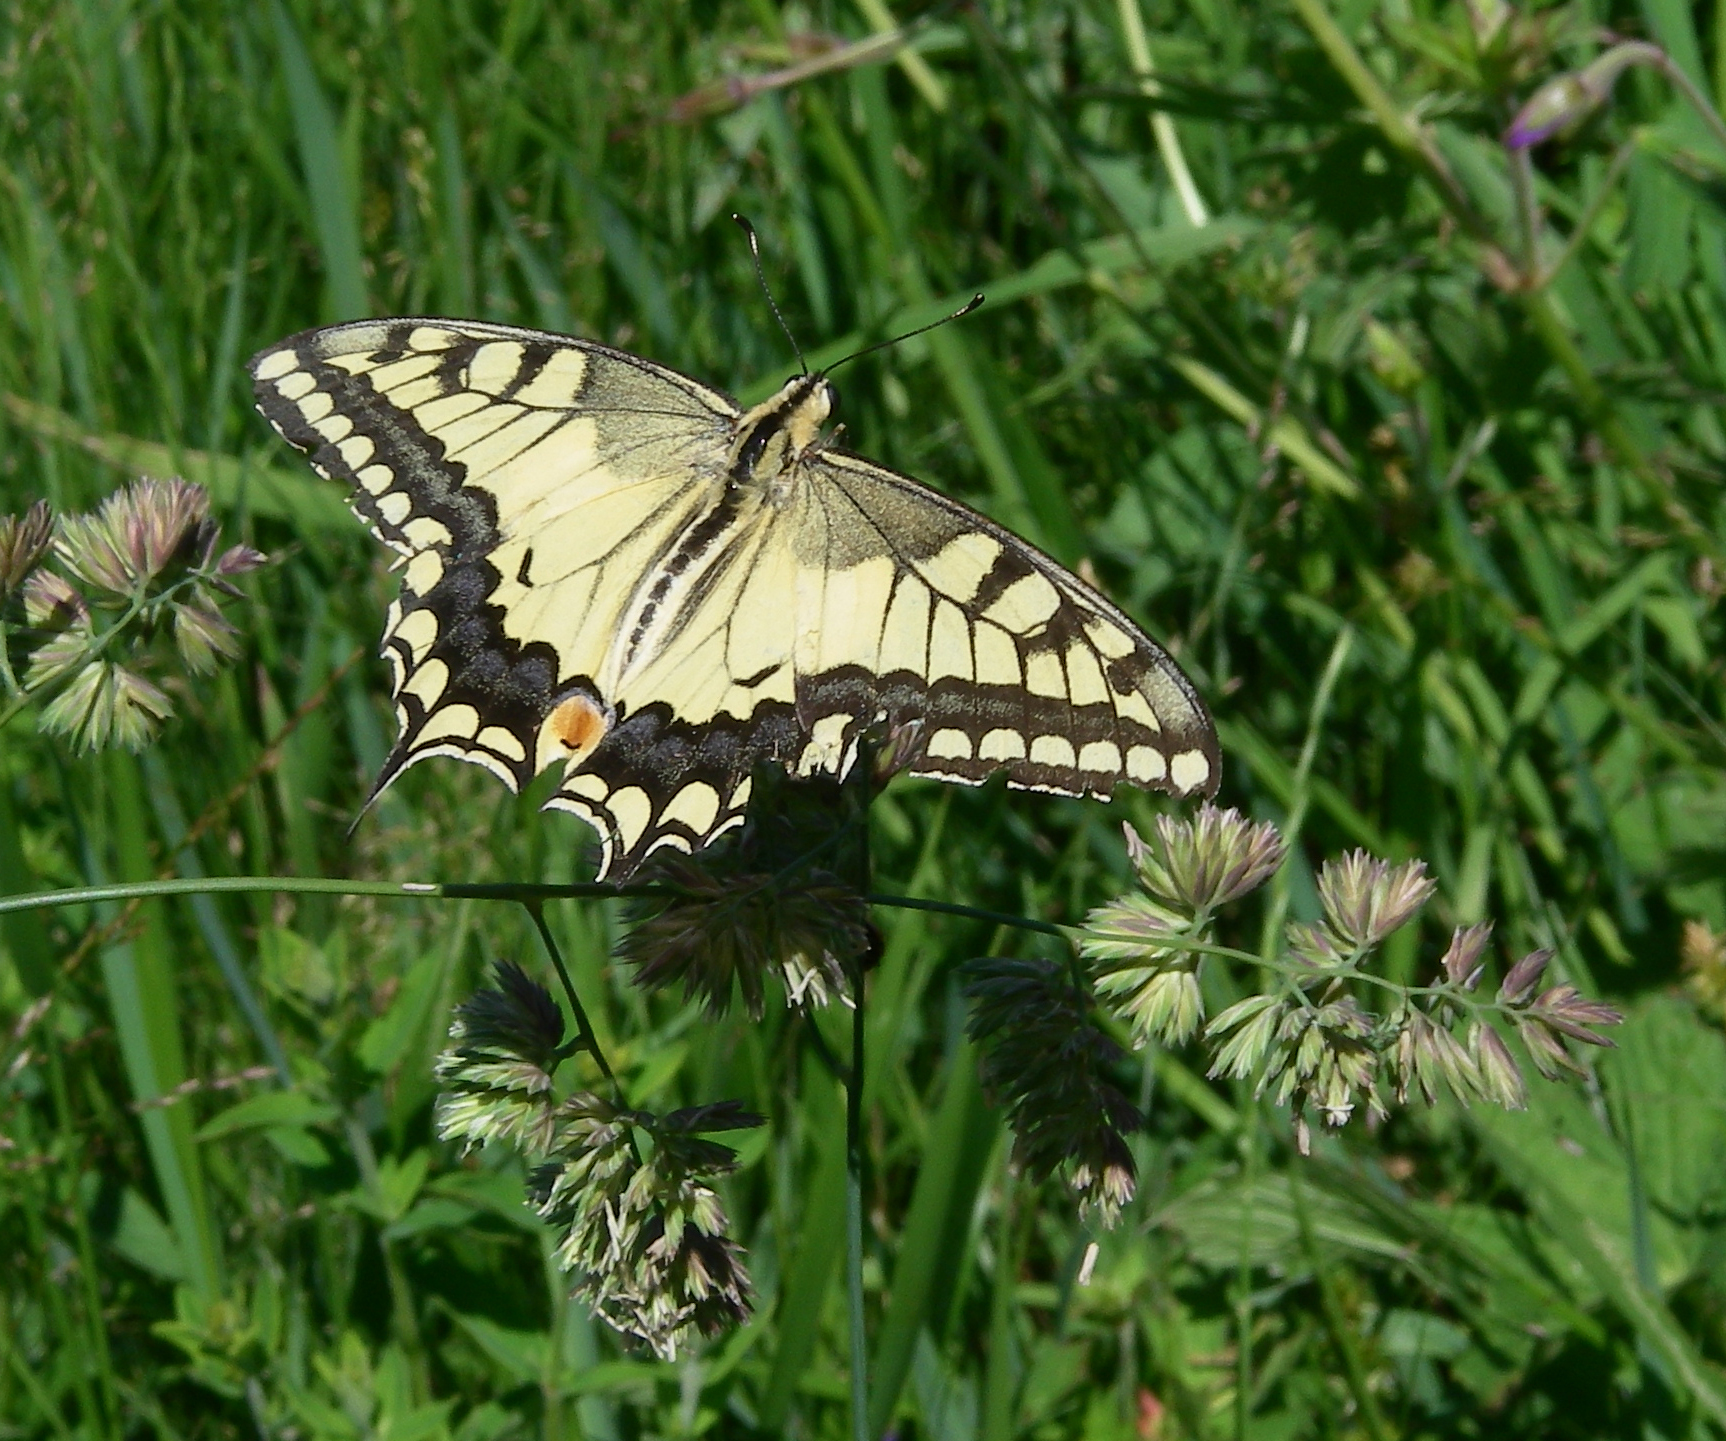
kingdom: Animalia
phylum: Arthropoda
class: Insecta
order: Lepidoptera
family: Papilionidae
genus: Papilio
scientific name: Papilio machaon
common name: Swallowtail
